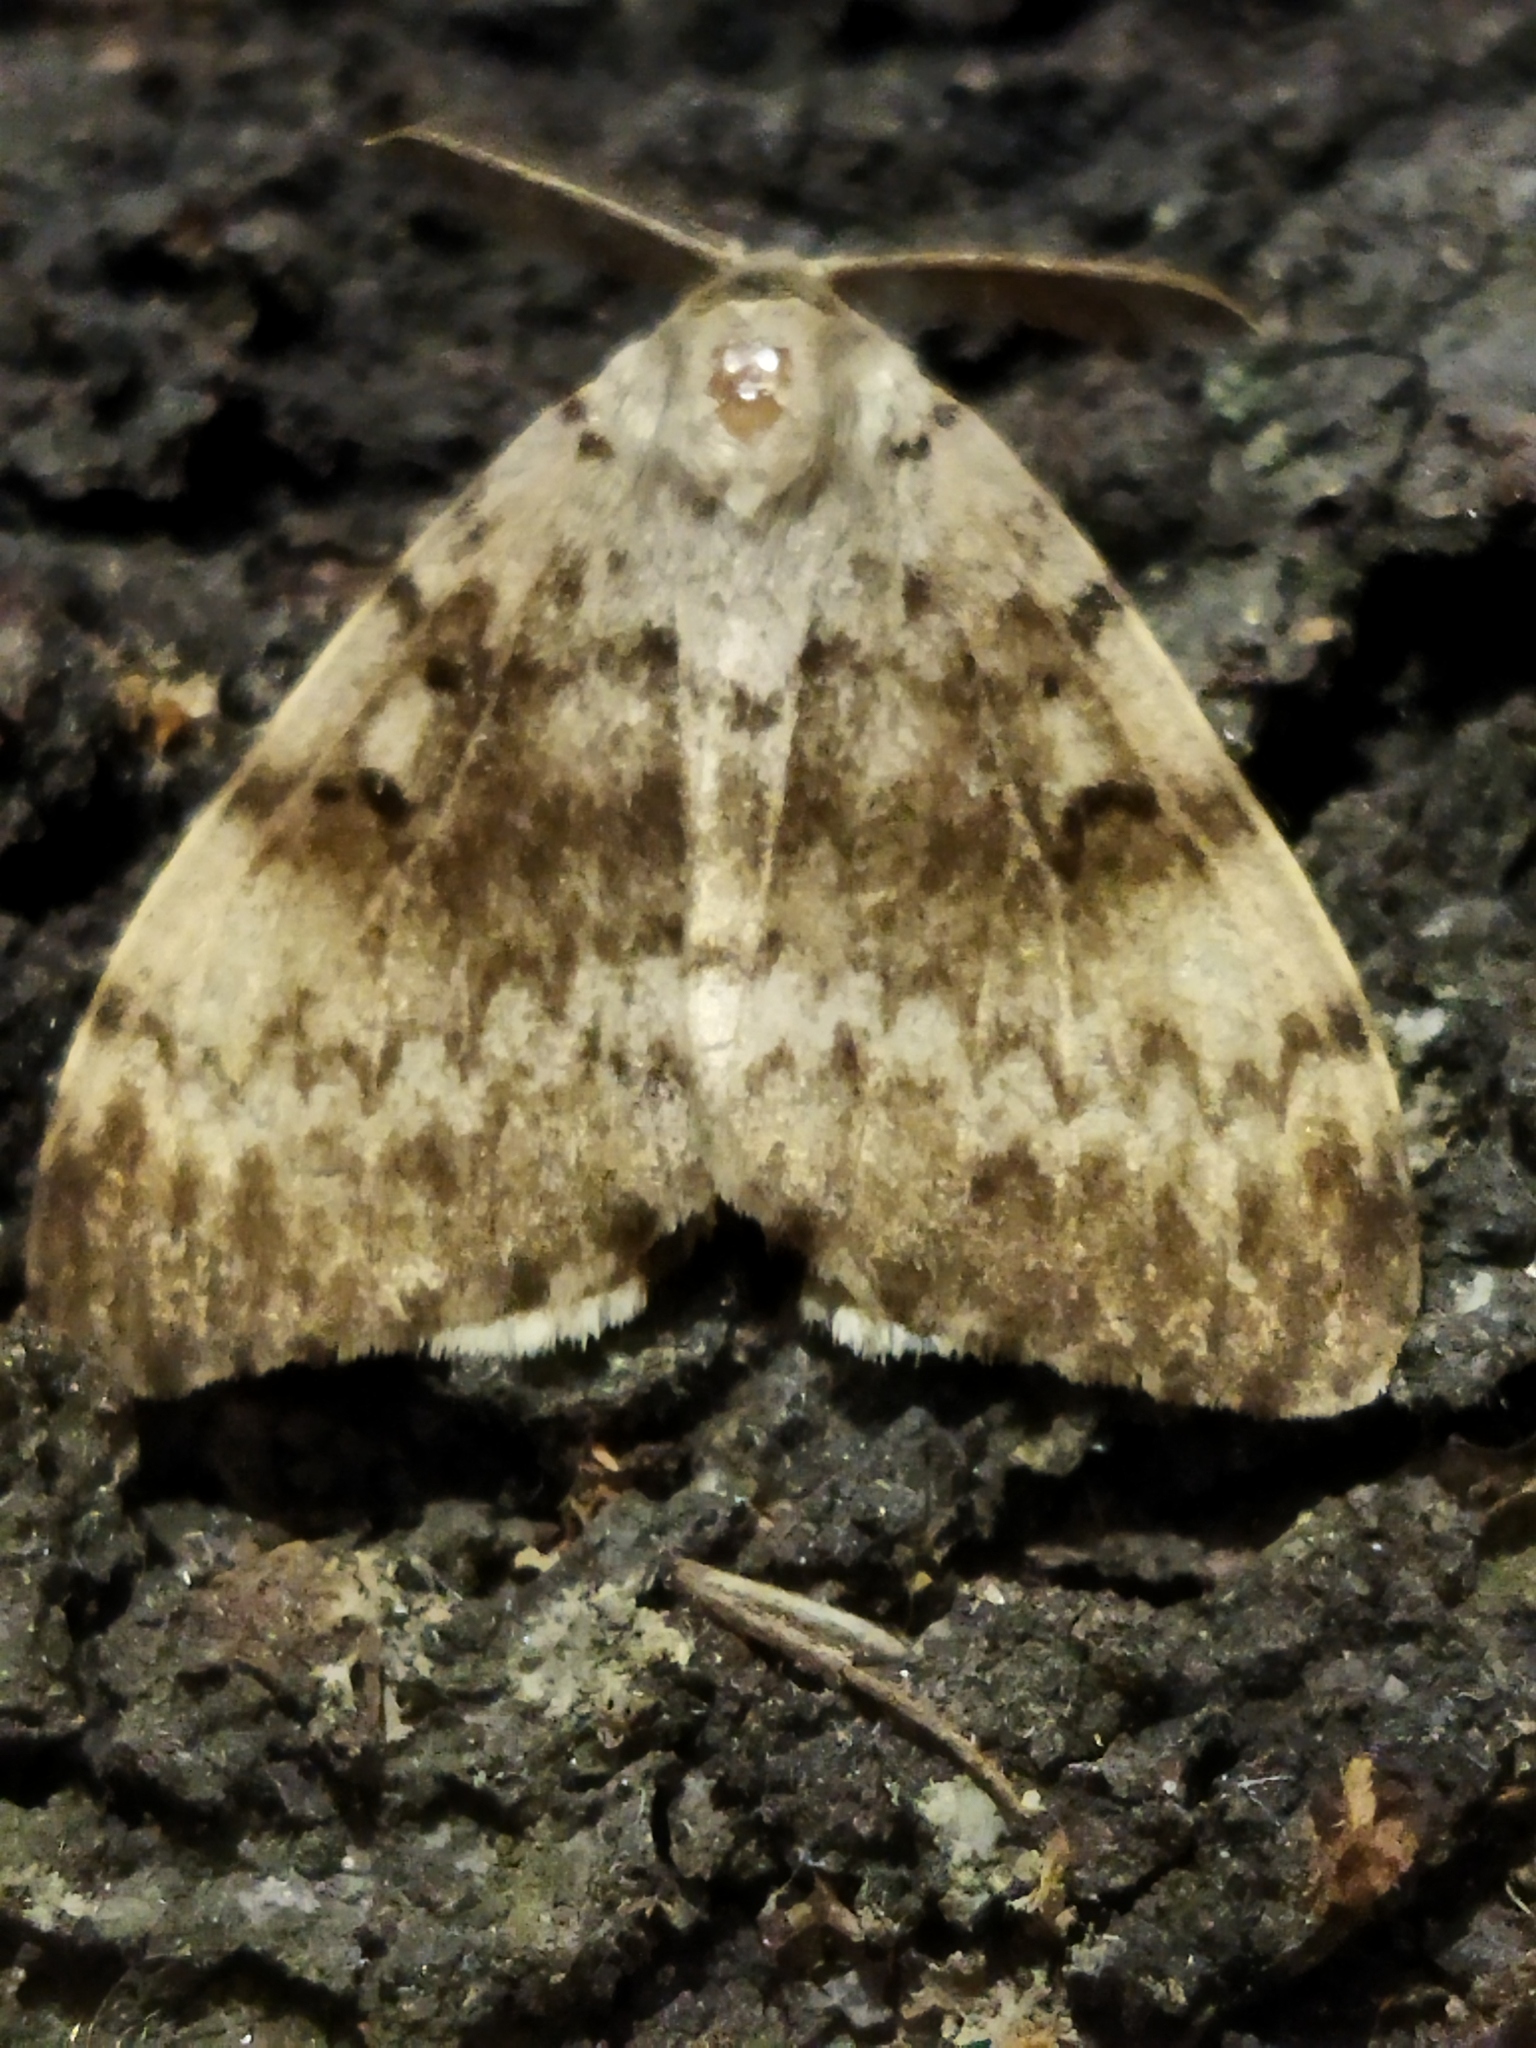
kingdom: Animalia
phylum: Arthropoda
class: Insecta
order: Lepidoptera
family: Erebidae
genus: Lymantria
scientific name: Lymantria dispar
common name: Gypsy moth
